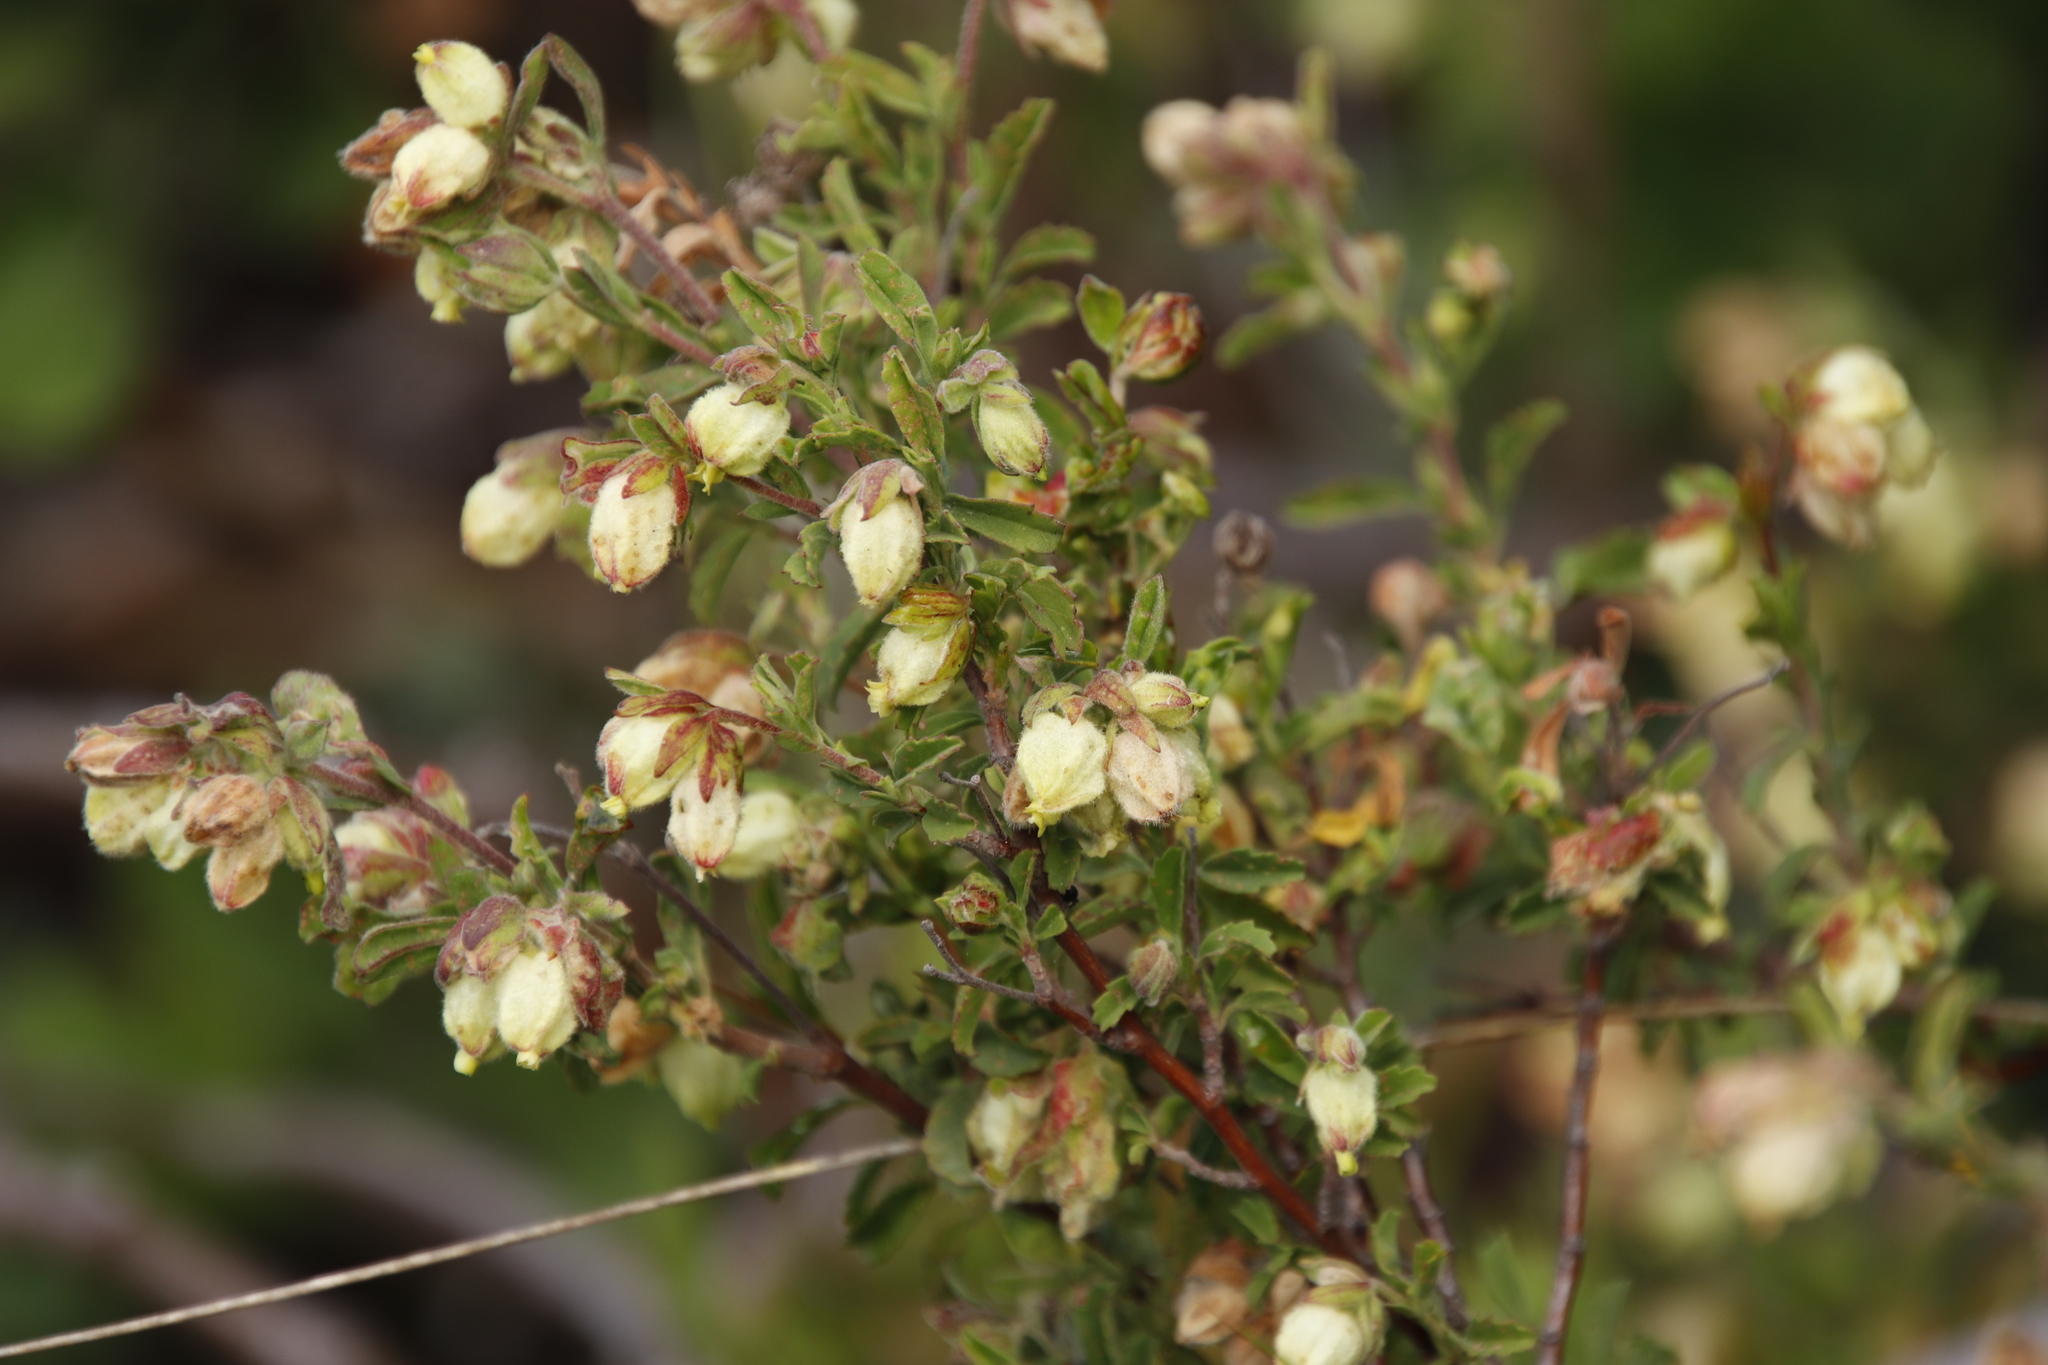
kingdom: Plantae
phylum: Tracheophyta
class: Magnoliopsida
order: Malvales
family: Malvaceae
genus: Hermannia
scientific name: Hermannia hyssopifolia
